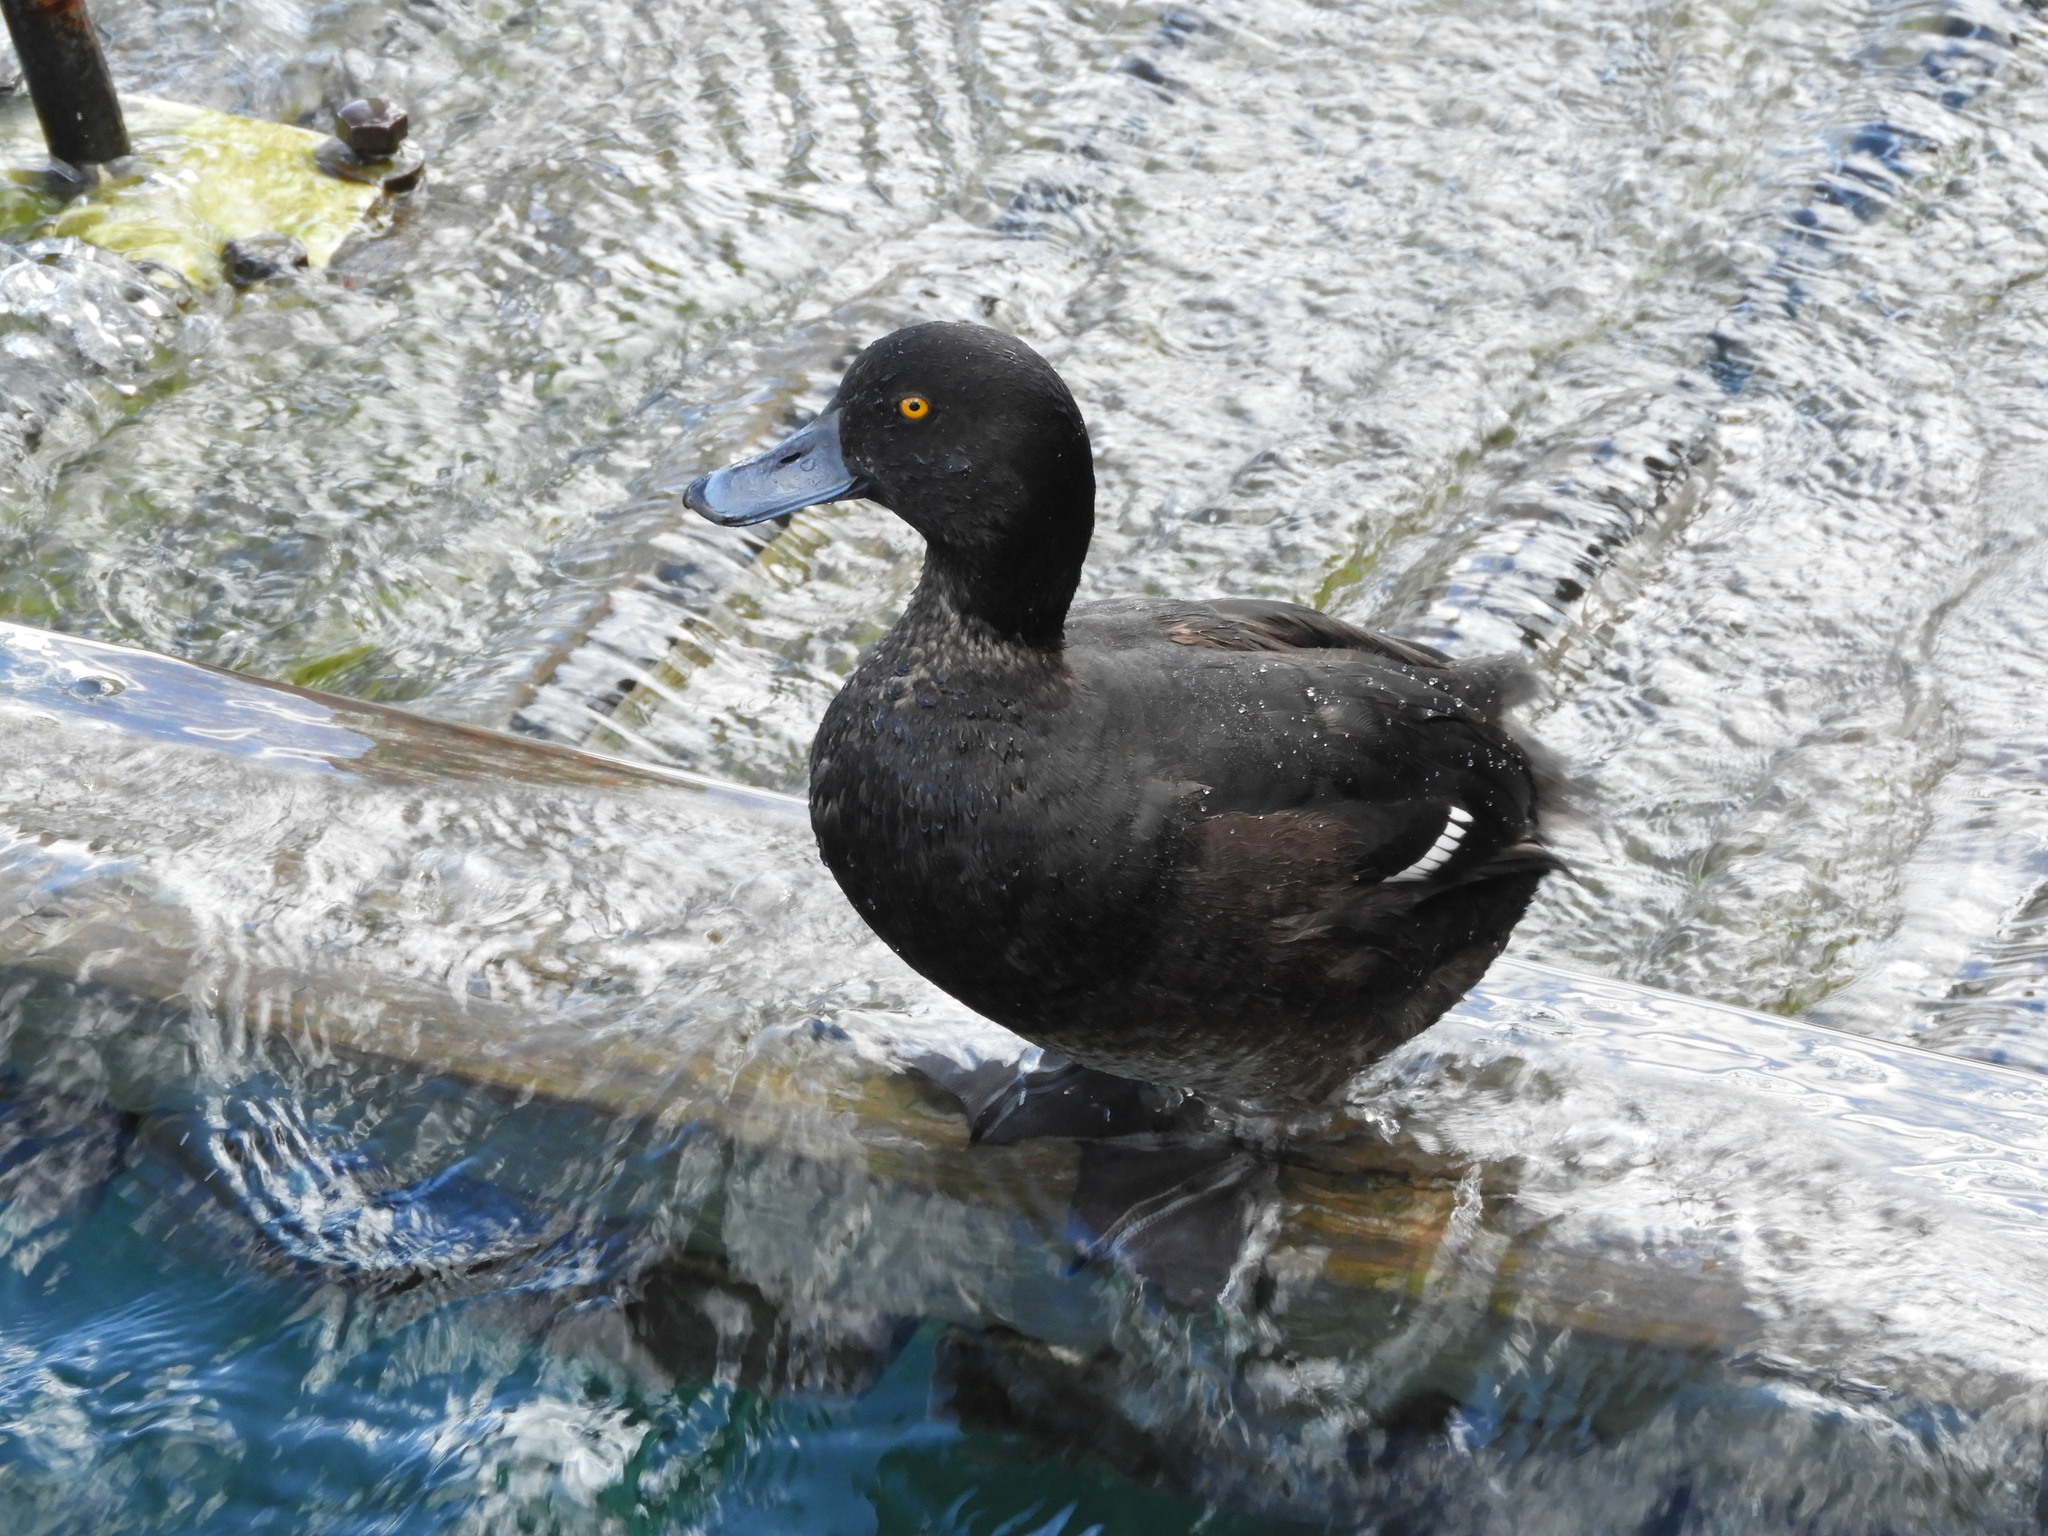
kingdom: Animalia
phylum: Chordata
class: Aves
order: Anseriformes
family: Anatidae
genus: Aythya
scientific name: Aythya novaeseelandiae
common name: New zealand scaup
